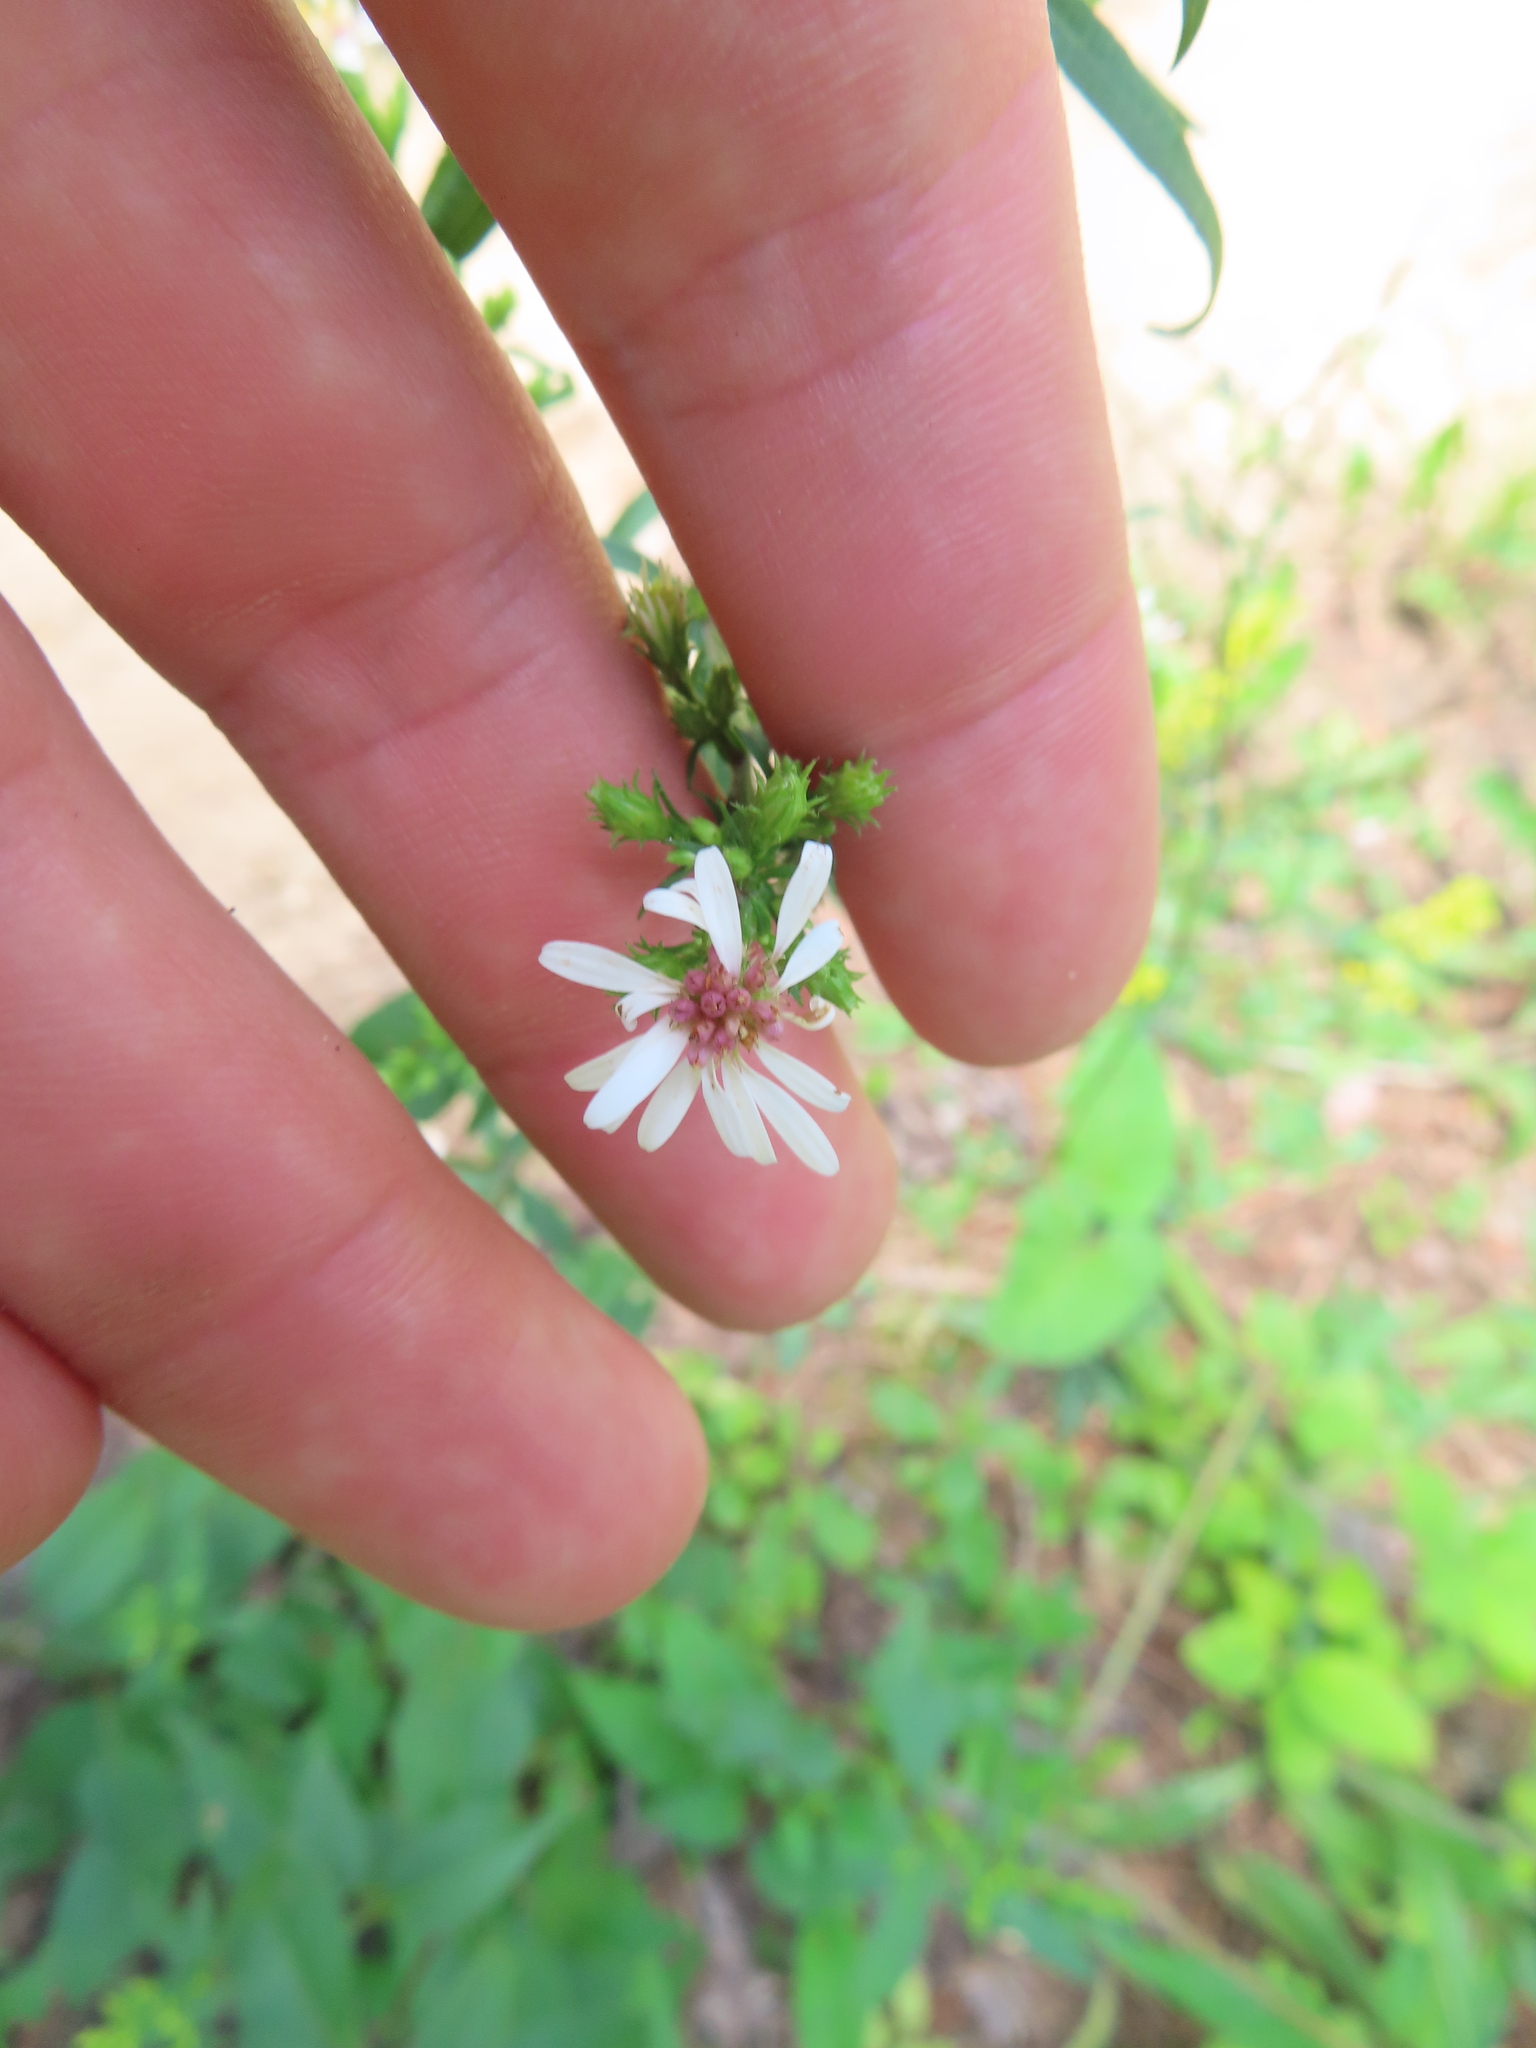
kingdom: Plantae
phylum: Tracheophyta
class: Magnoliopsida
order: Asterales
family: Asteraceae
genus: Symphyotrichum
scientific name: Symphyotrichum urophyllum
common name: Arrow-leaved aster
